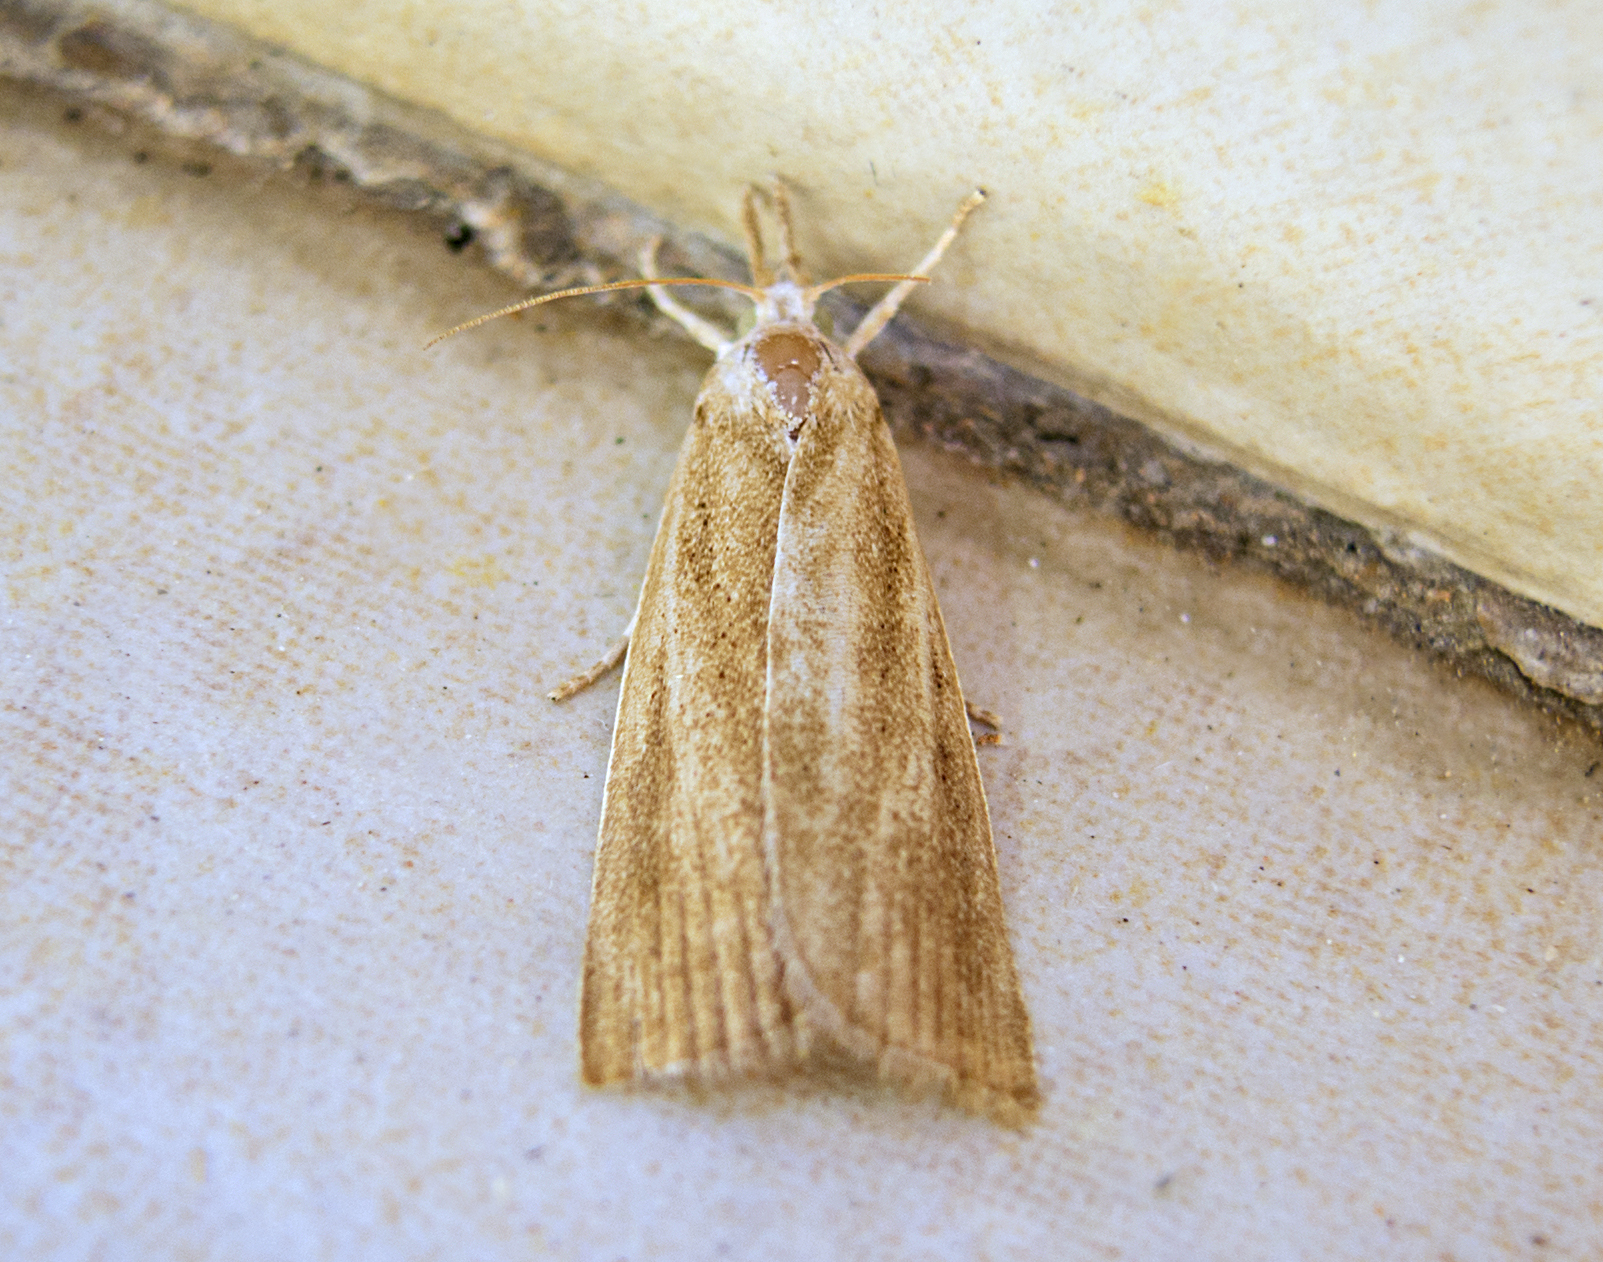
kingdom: Animalia
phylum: Arthropoda
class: Insecta
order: Lepidoptera
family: Crambidae
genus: Calamotropha
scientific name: Calamotropha paludella
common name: Bulrush veneer
